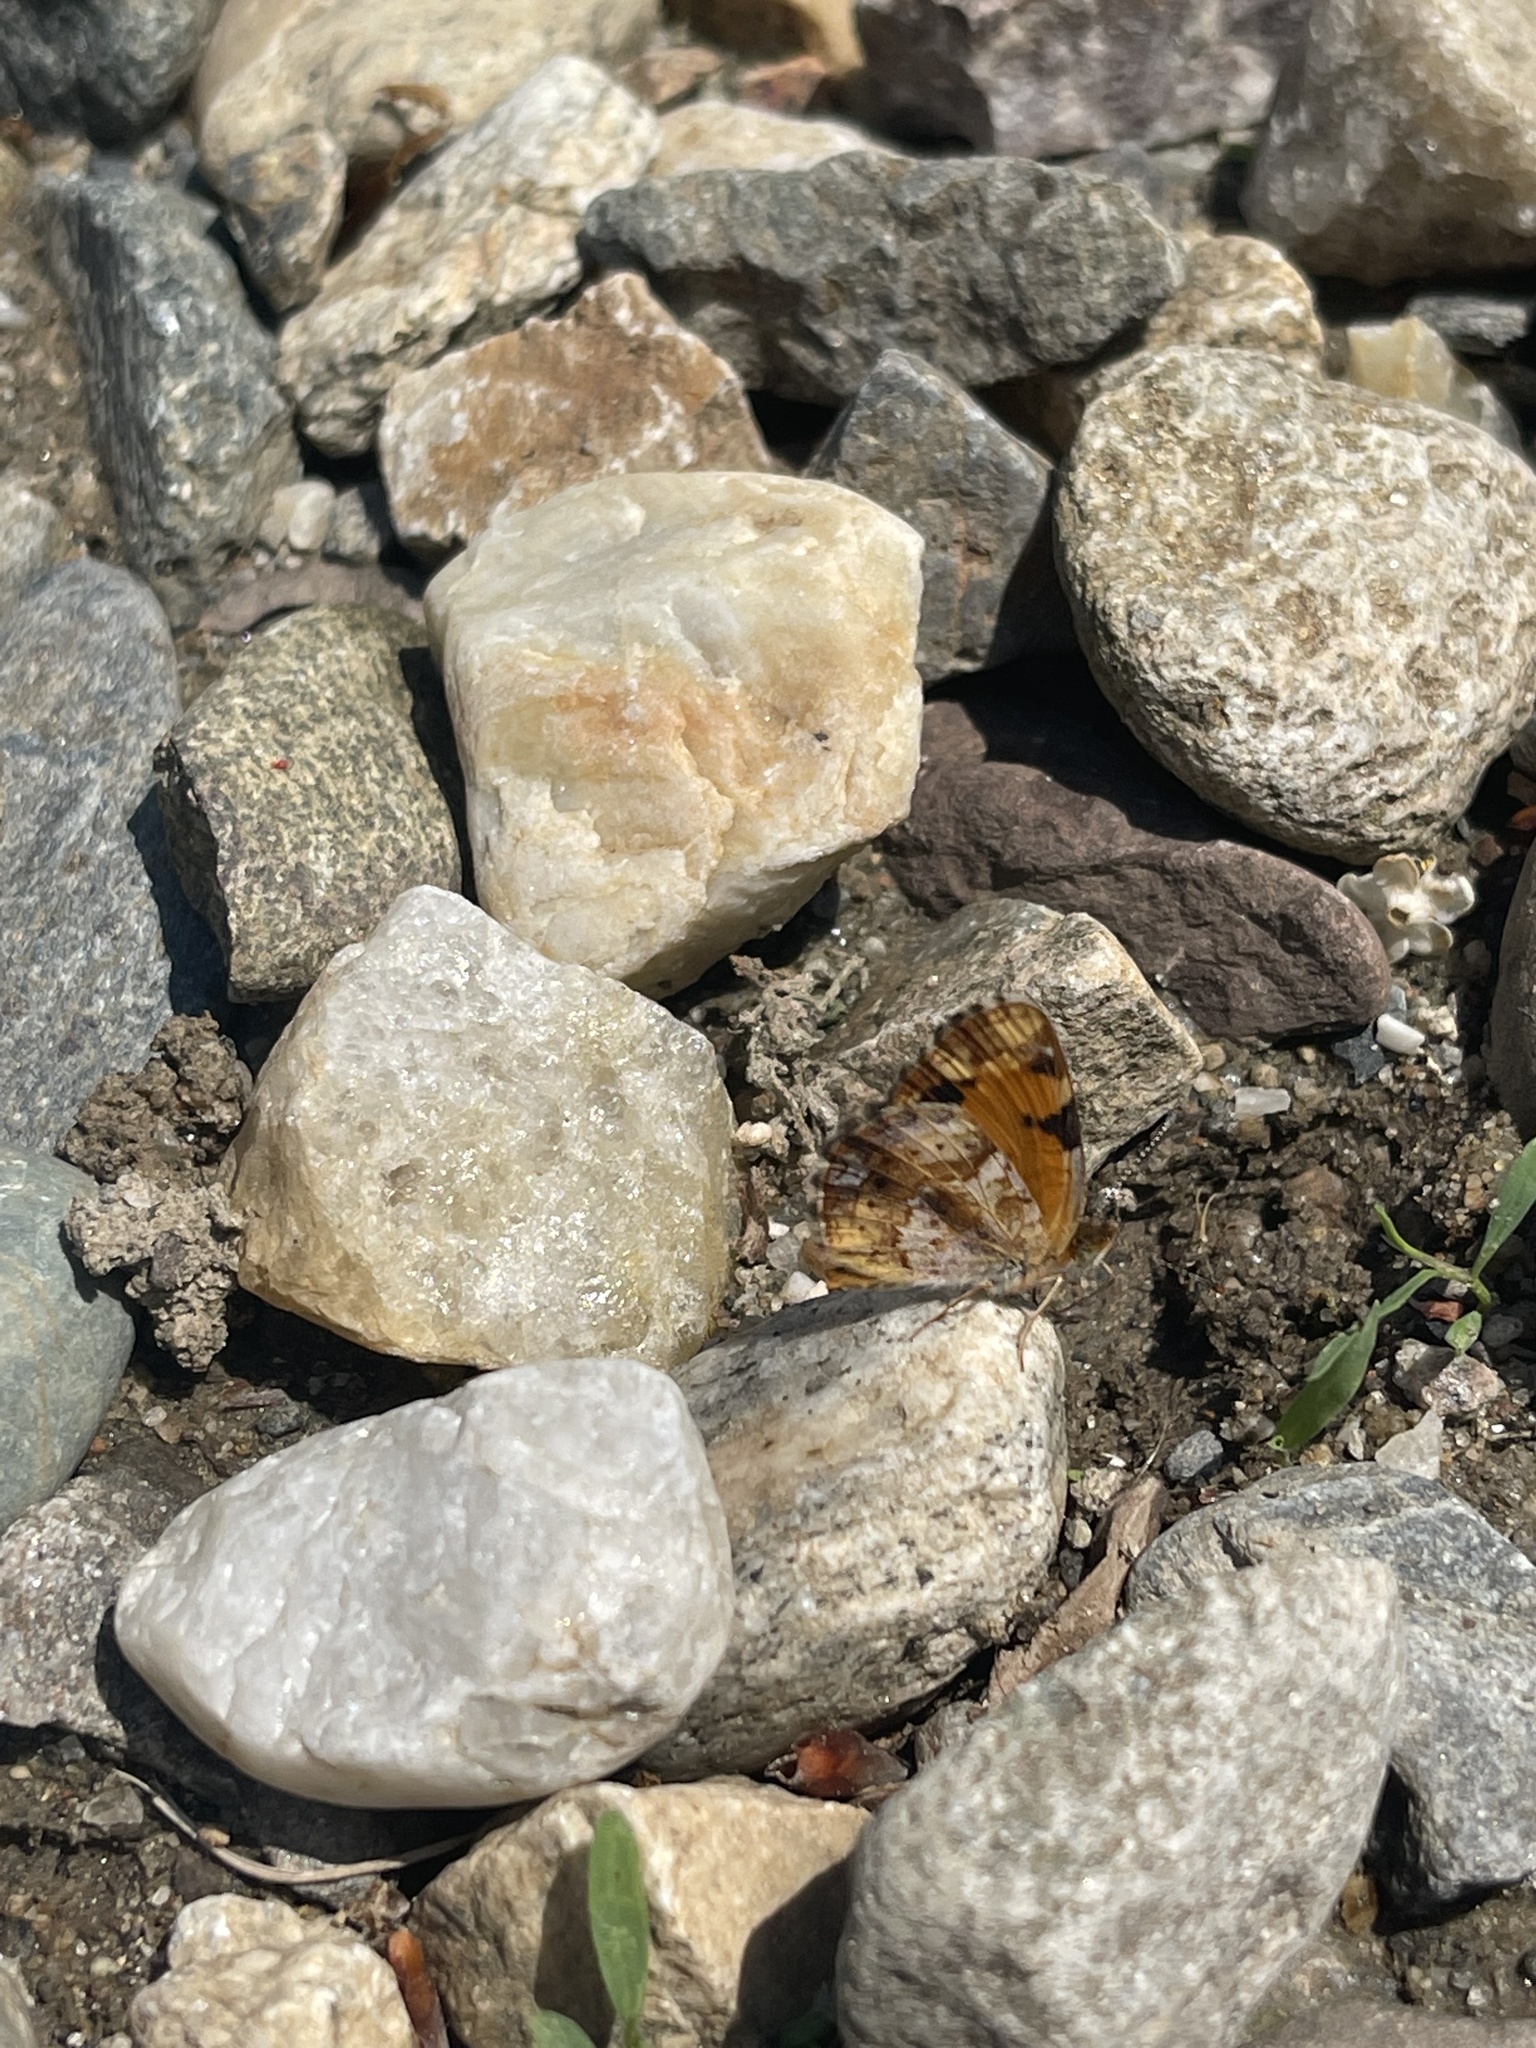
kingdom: Animalia
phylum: Arthropoda
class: Insecta
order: Lepidoptera
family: Nymphalidae
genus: Phyciodes
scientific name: Phyciodes tharos
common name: Pearl crescent
